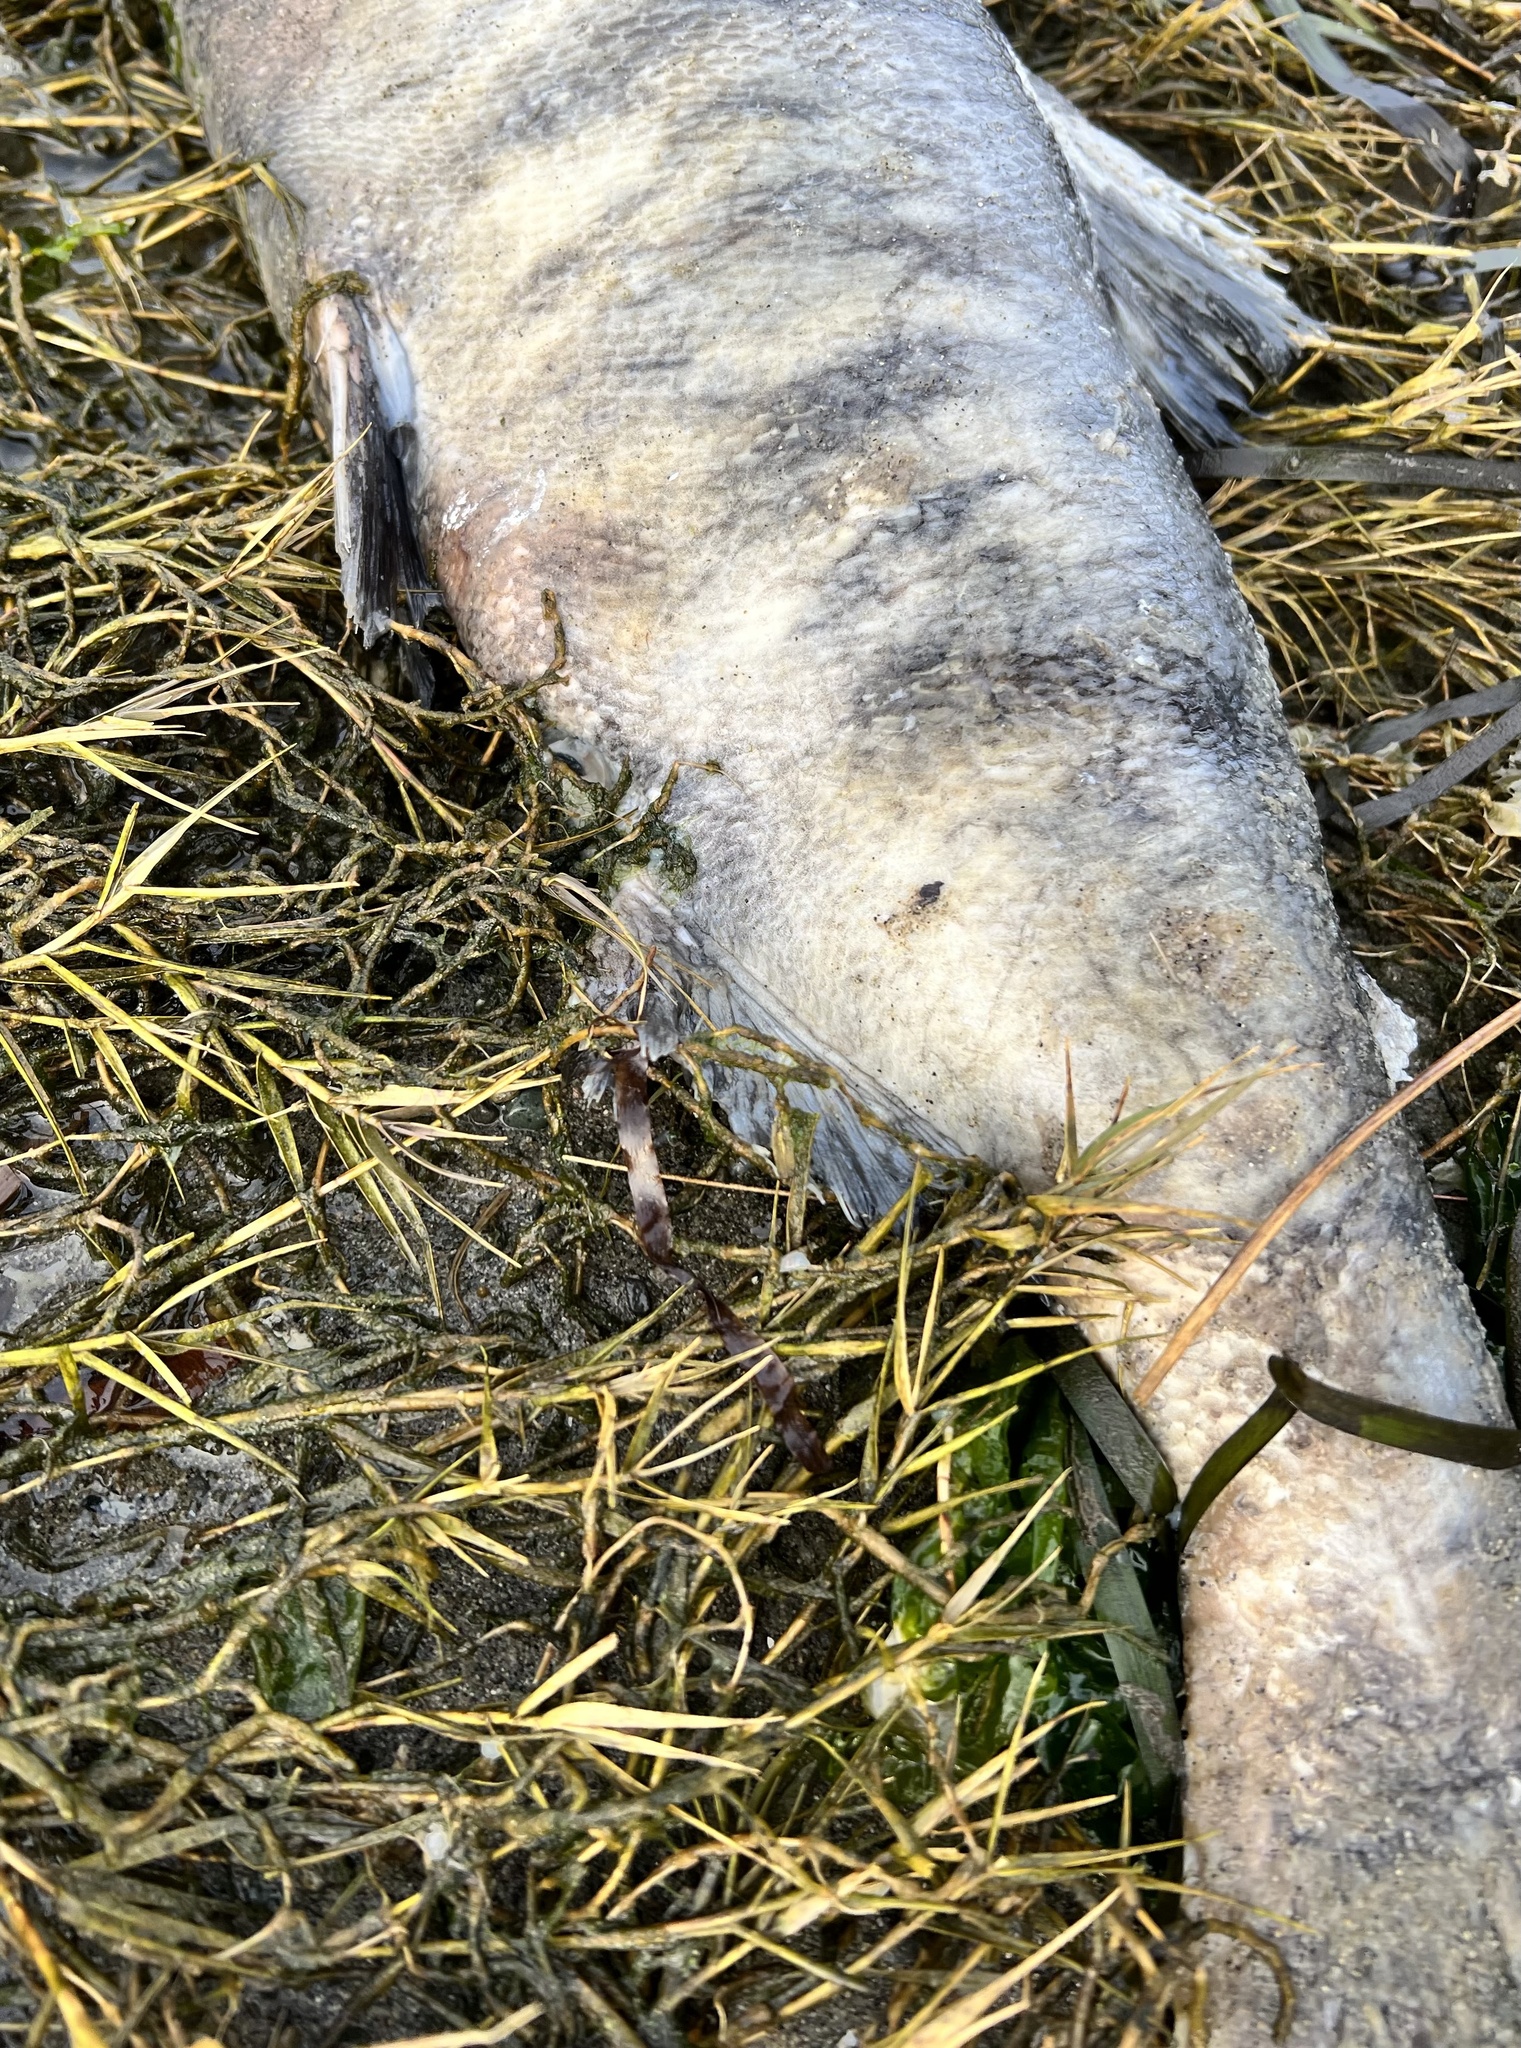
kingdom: Animalia
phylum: Chordata
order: Salmoniformes
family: Salmonidae
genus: Oncorhynchus
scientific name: Oncorhynchus keta
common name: Chum salmon
